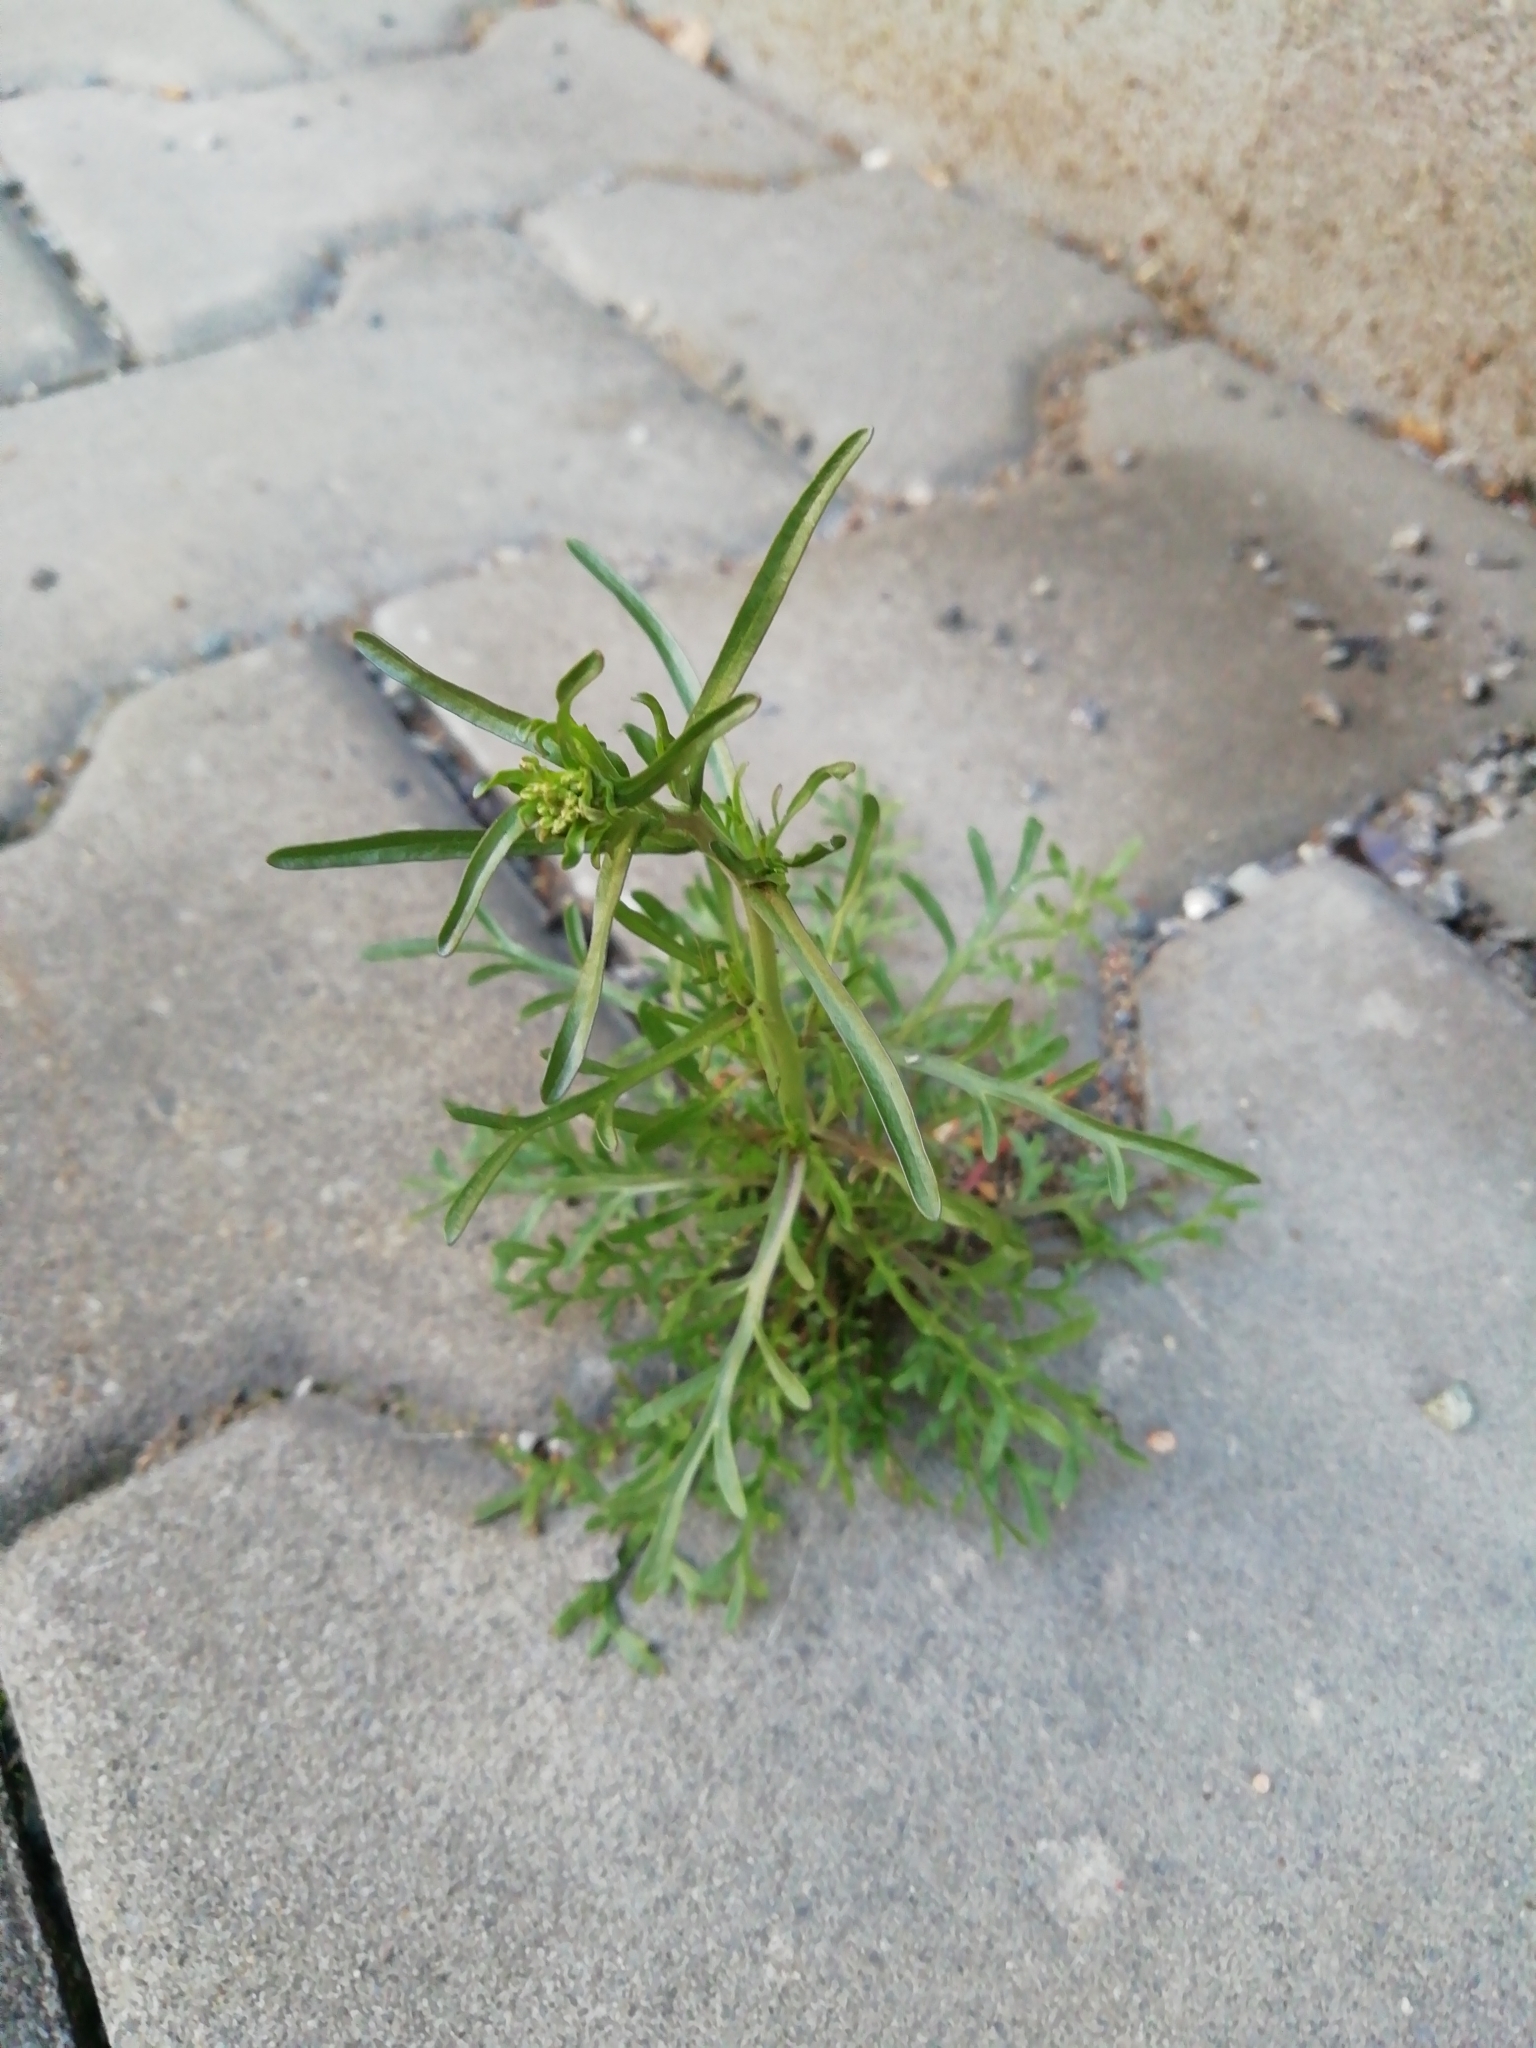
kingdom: Plantae
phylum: Tracheophyta
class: Magnoliopsida
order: Brassicales
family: Brassicaceae
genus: Lepidium
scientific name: Lepidium ruderale
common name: Narrow-leaved pepperwort
